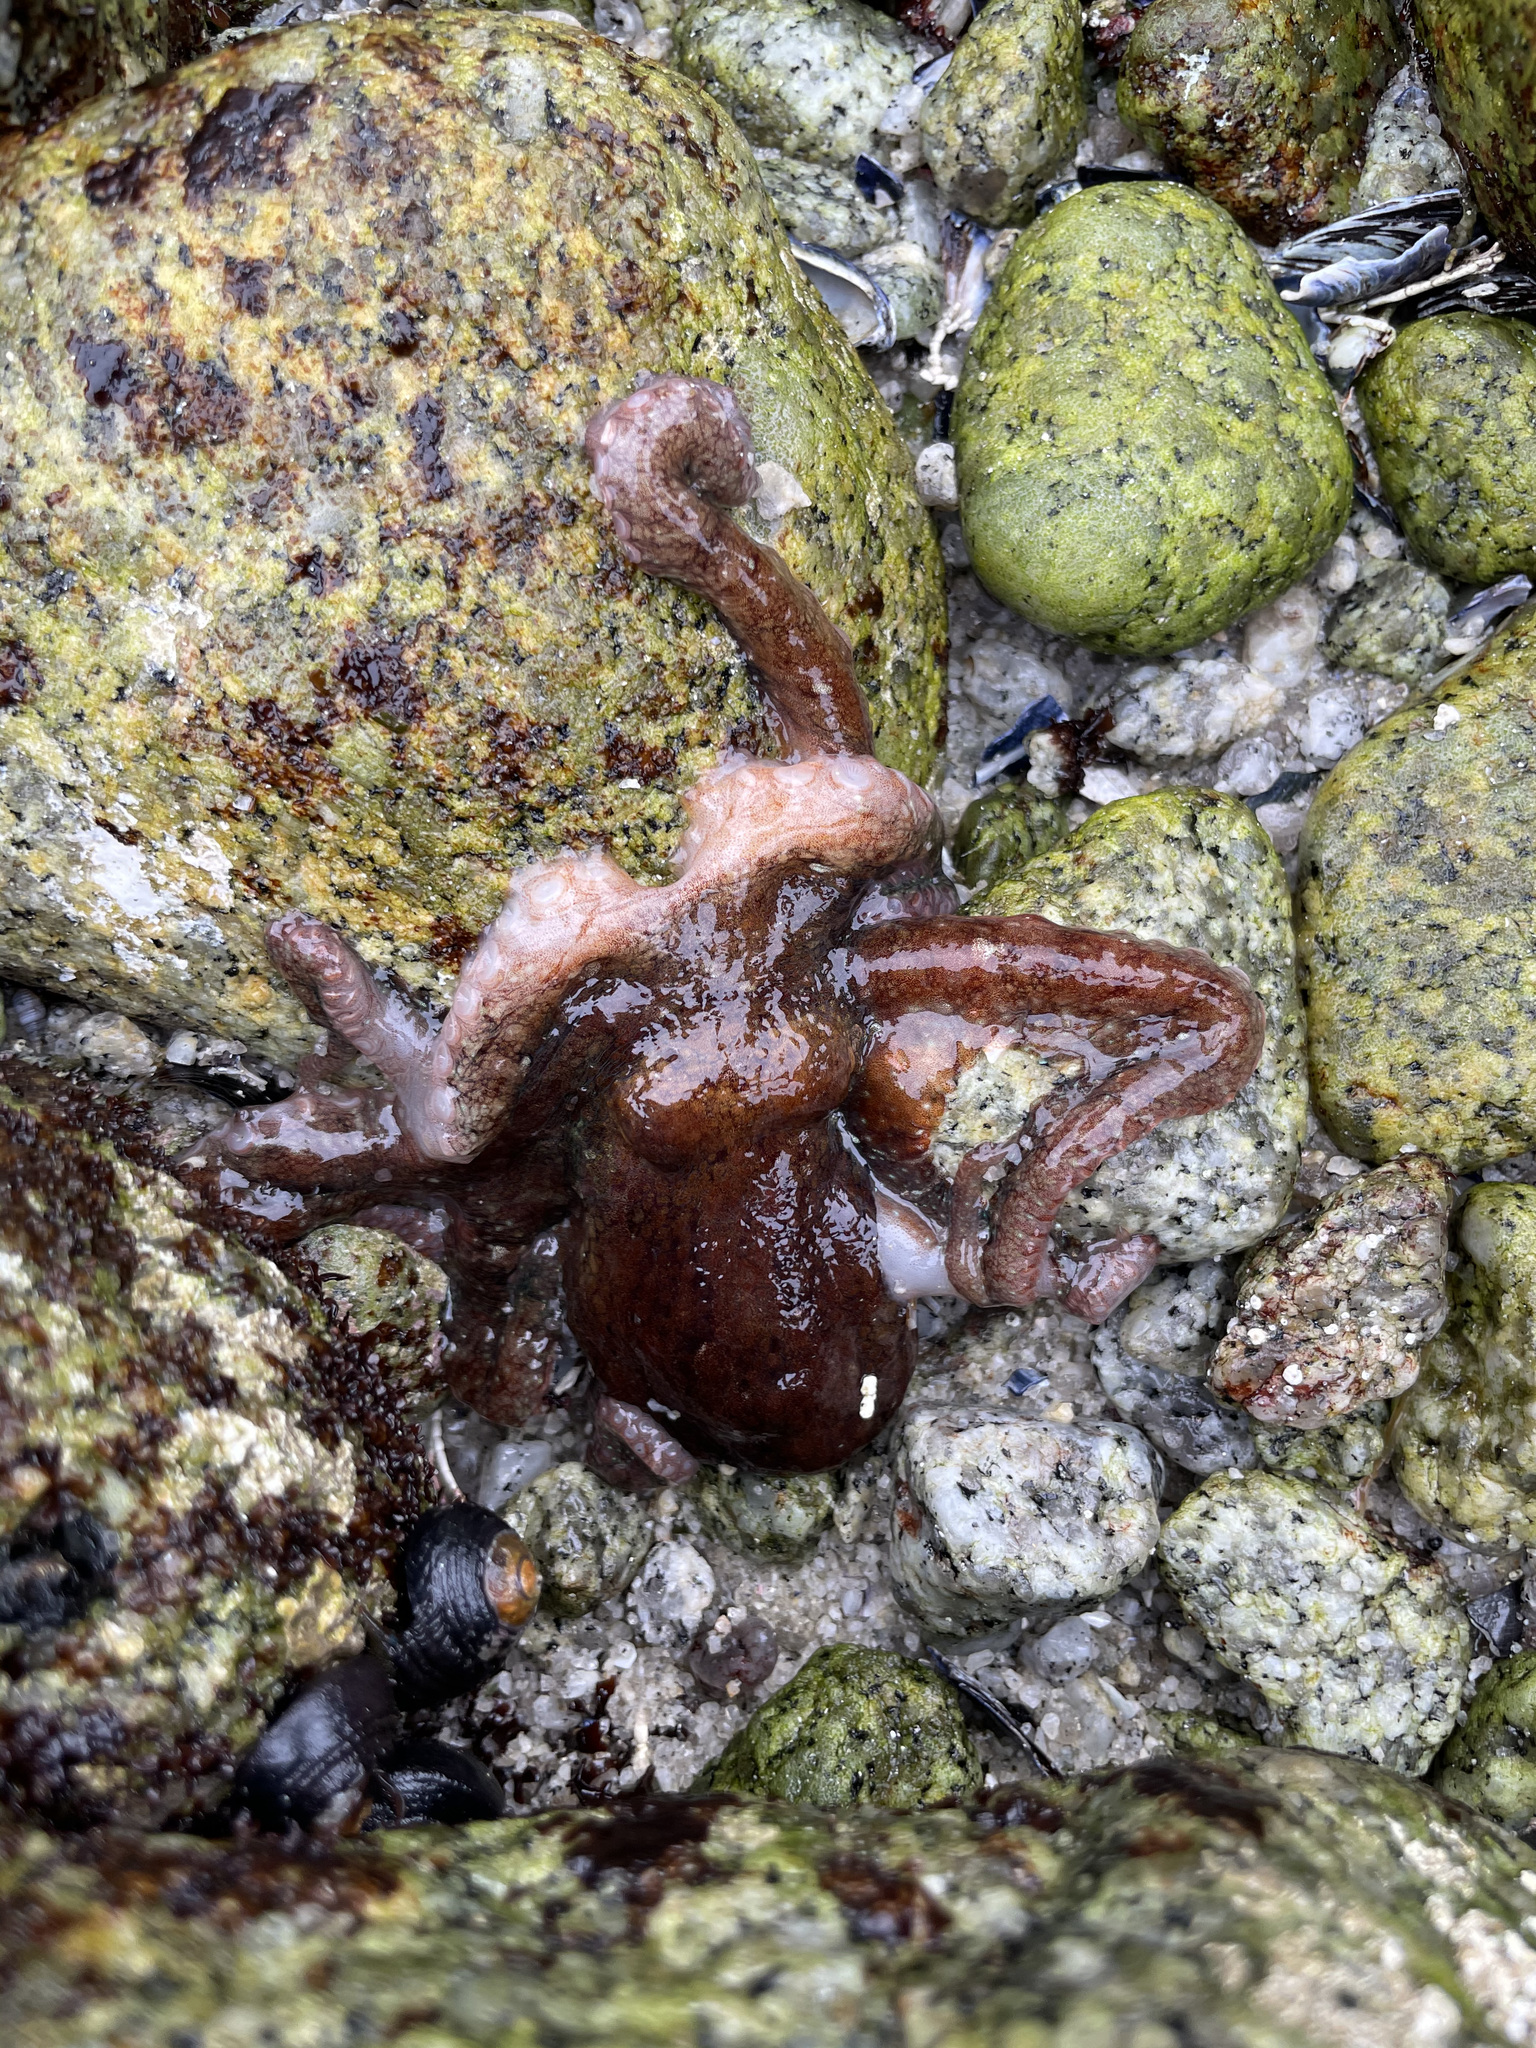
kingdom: Animalia
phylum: Mollusca
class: Cephalopoda
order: Octopoda
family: Octopodidae
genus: Octopus
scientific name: Octopus rubescens
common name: East pacific red octopus
